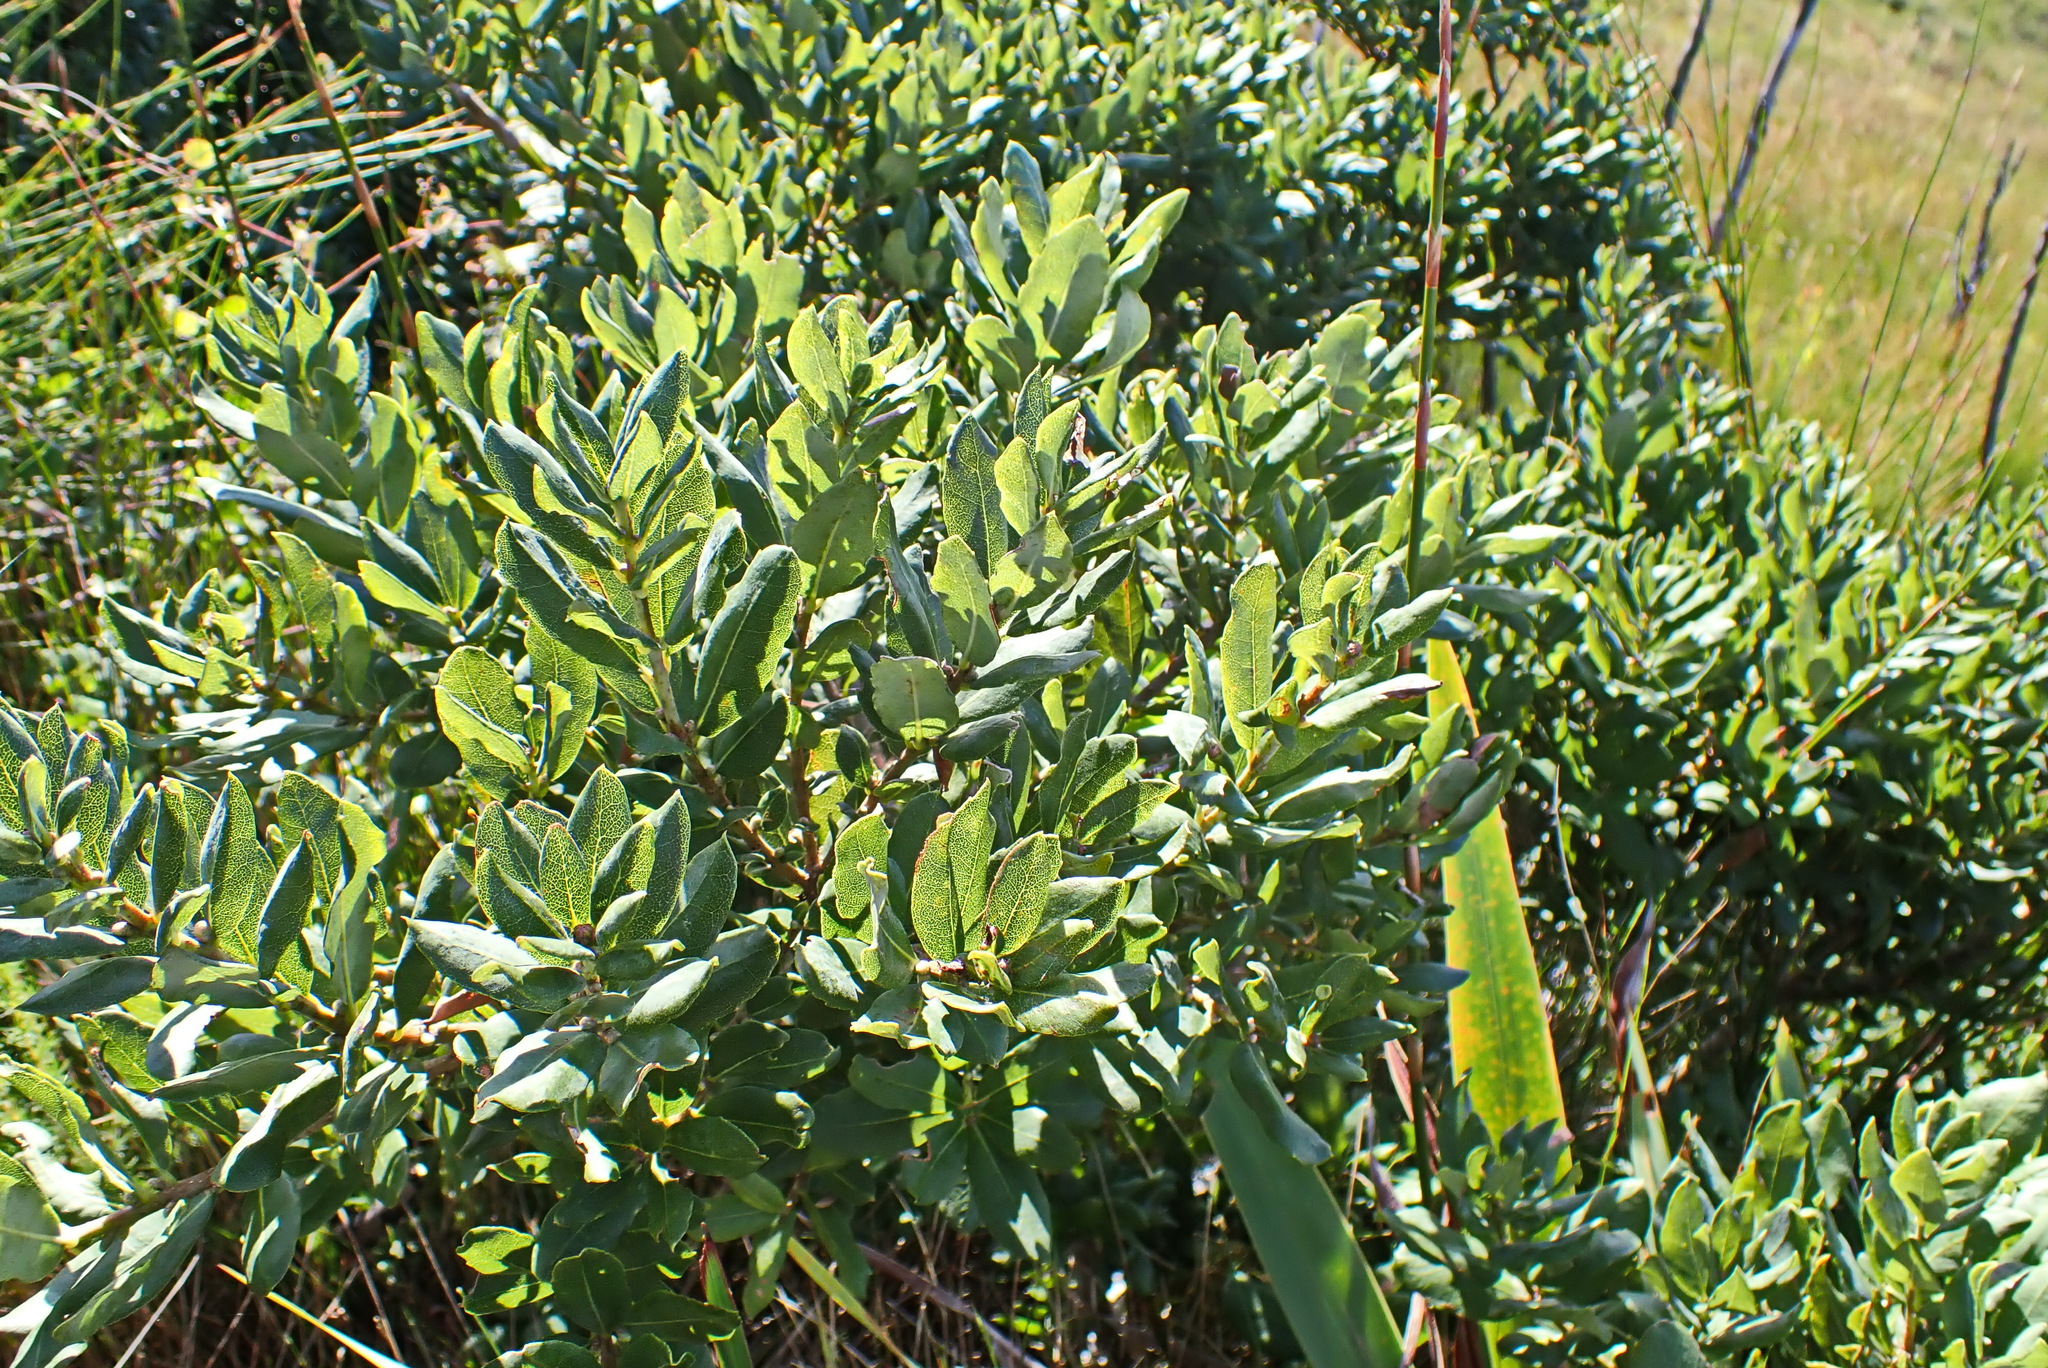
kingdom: Plantae
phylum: Tracheophyta
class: Magnoliopsida
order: Fagales
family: Myricaceae
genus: Morella
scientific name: Morella humilis
